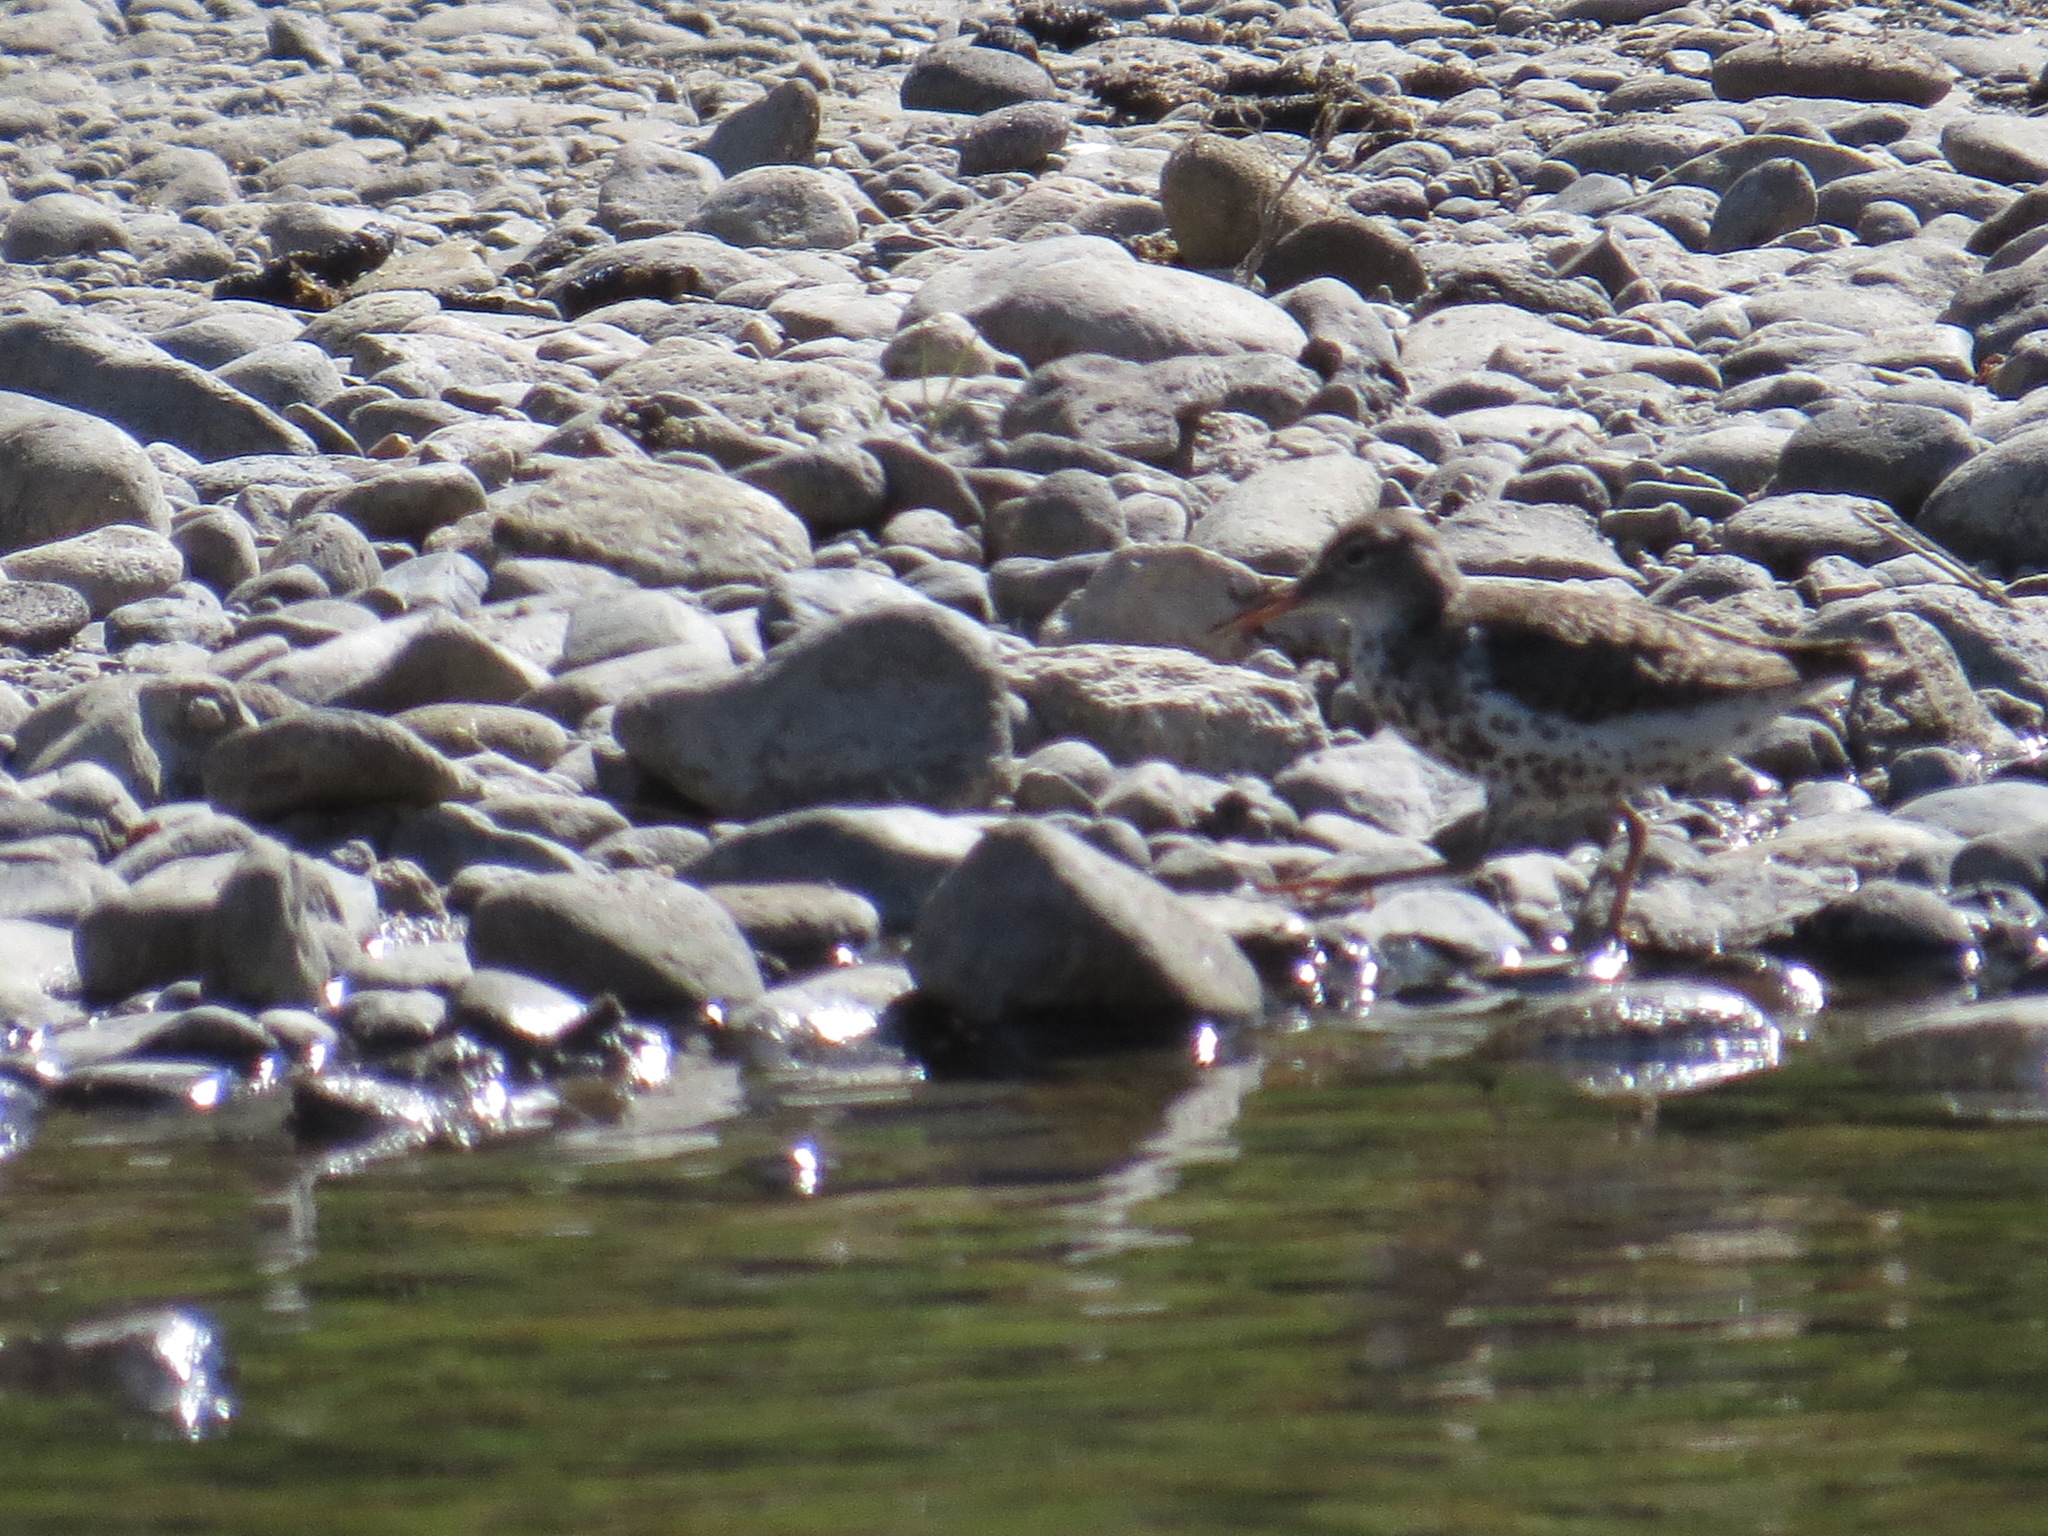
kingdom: Animalia
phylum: Chordata
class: Aves
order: Charadriiformes
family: Scolopacidae
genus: Actitis
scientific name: Actitis macularius
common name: Spotted sandpiper
